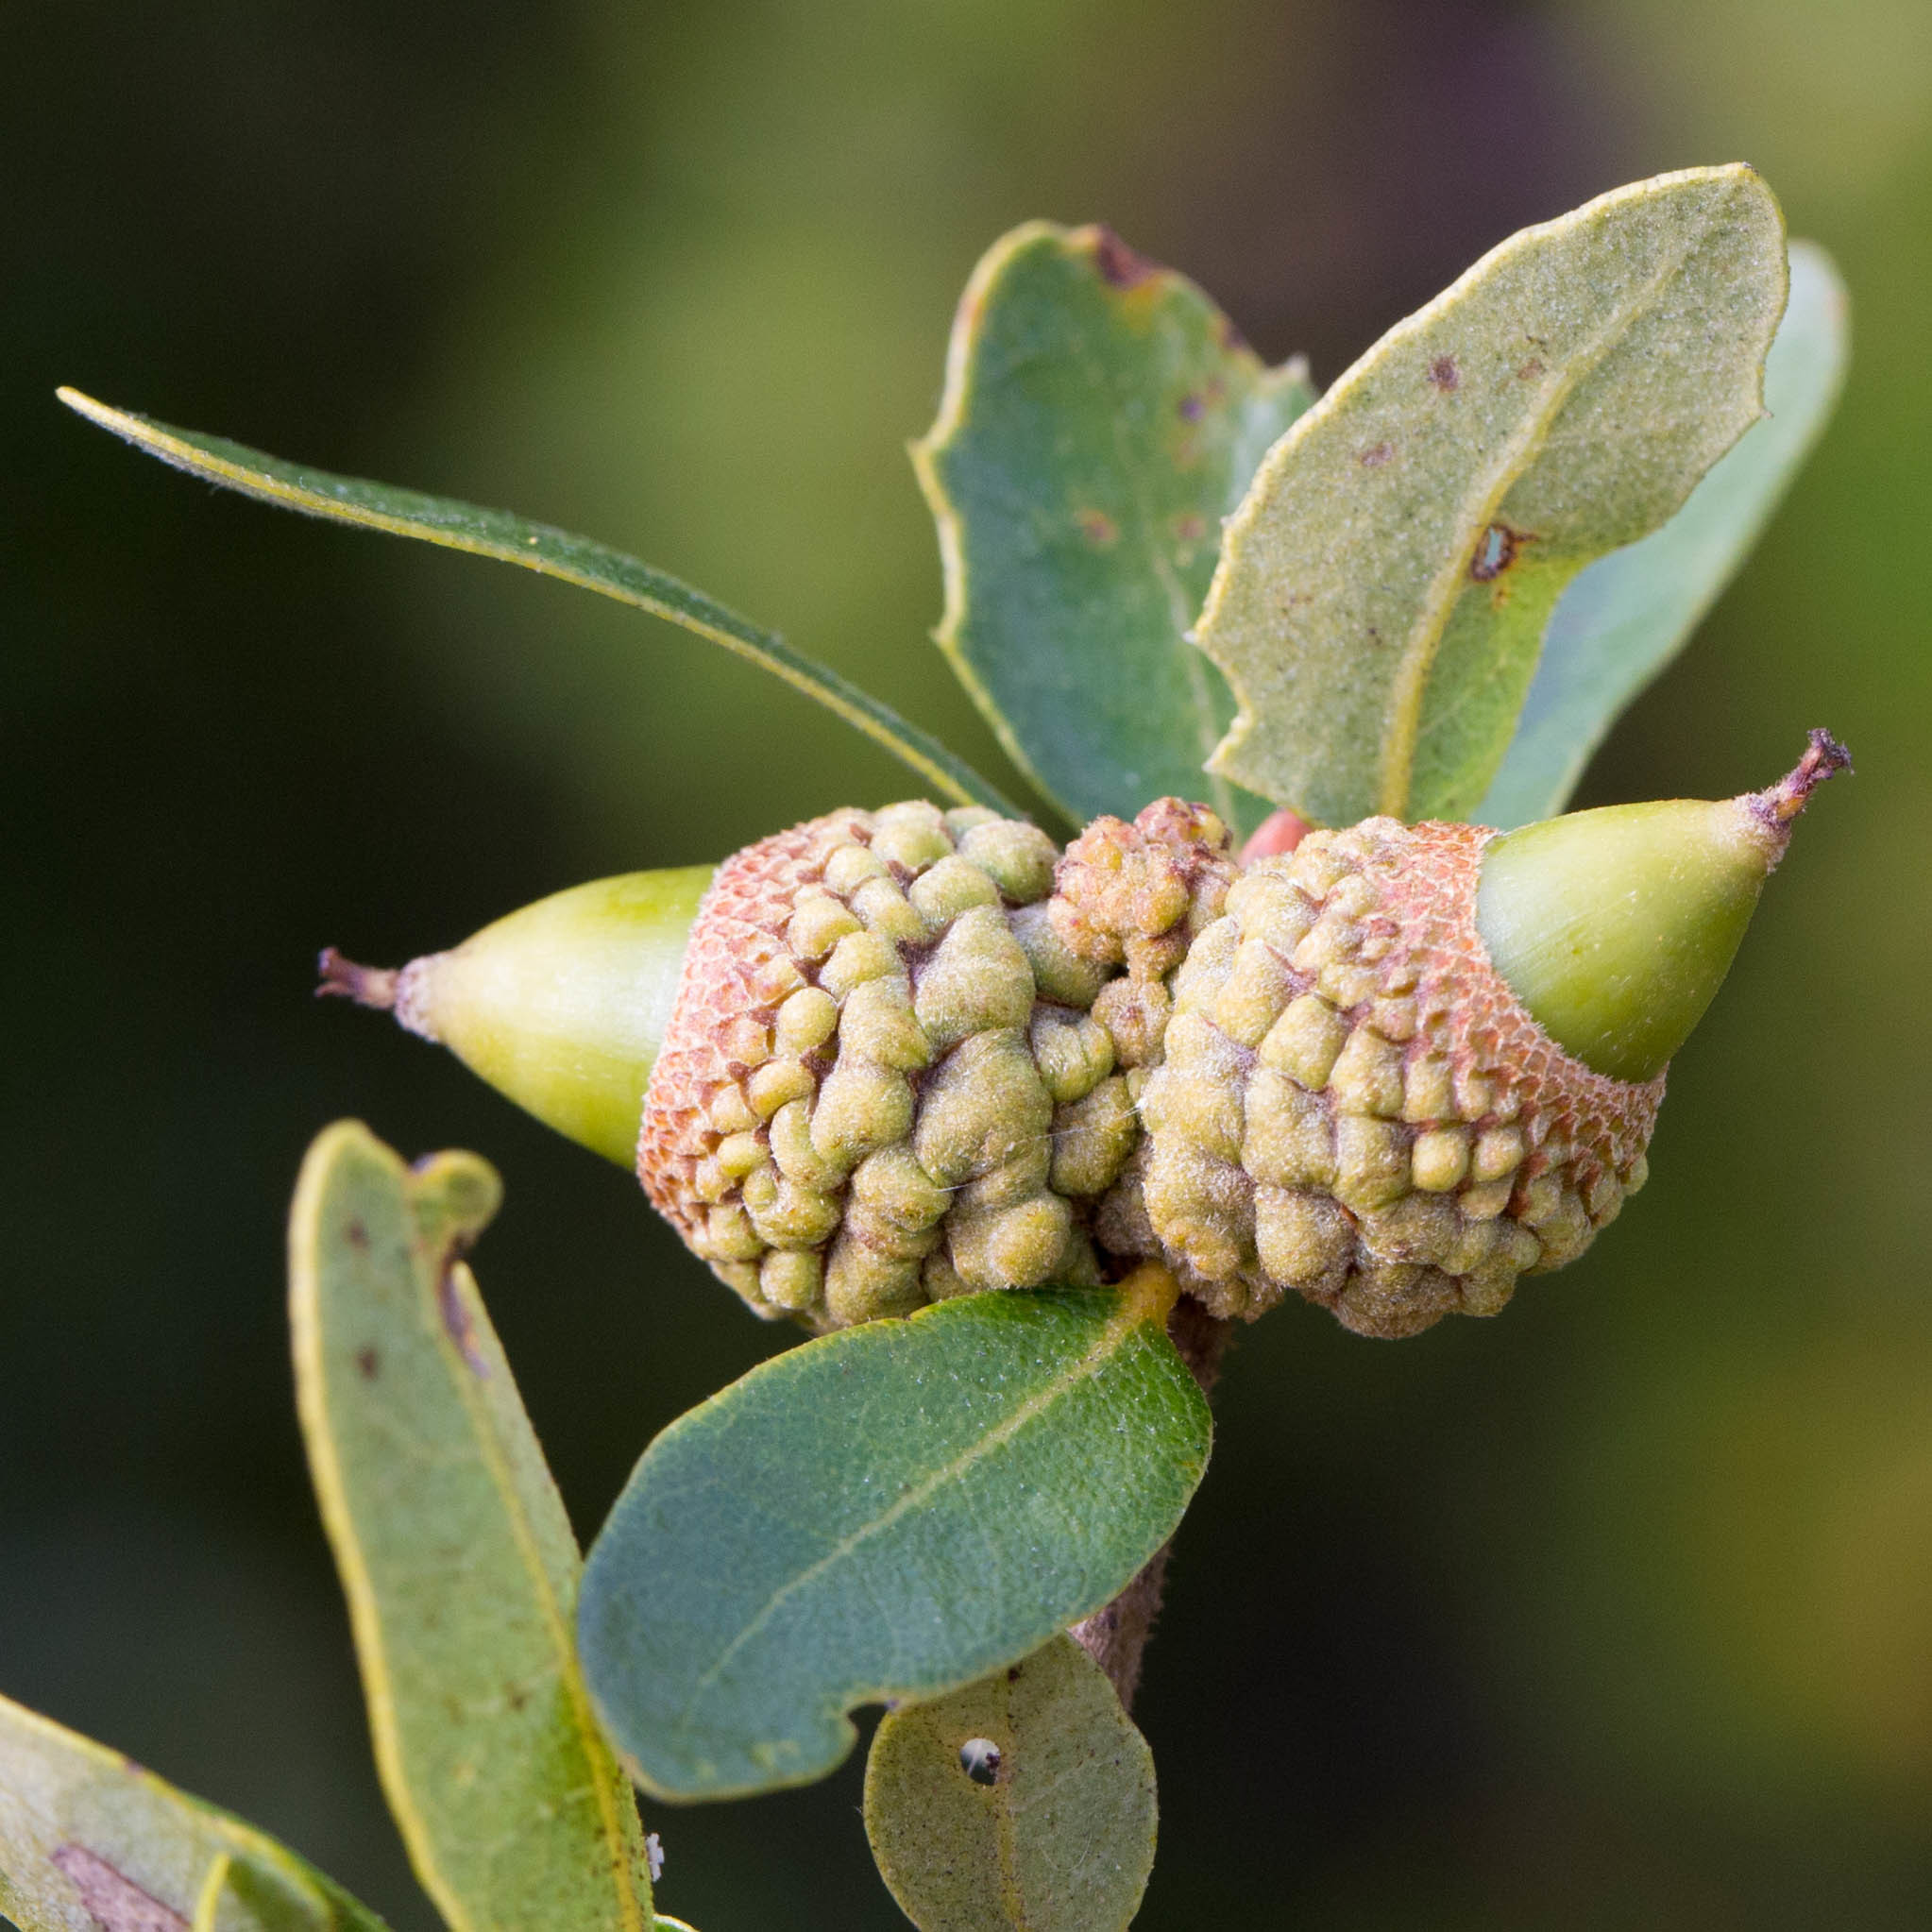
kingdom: Plantae
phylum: Tracheophyta
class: Magnoliopsida
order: Fagales
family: Fagaceae
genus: Quercus
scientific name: Quercus pacifica
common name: Channel island scrub oak
